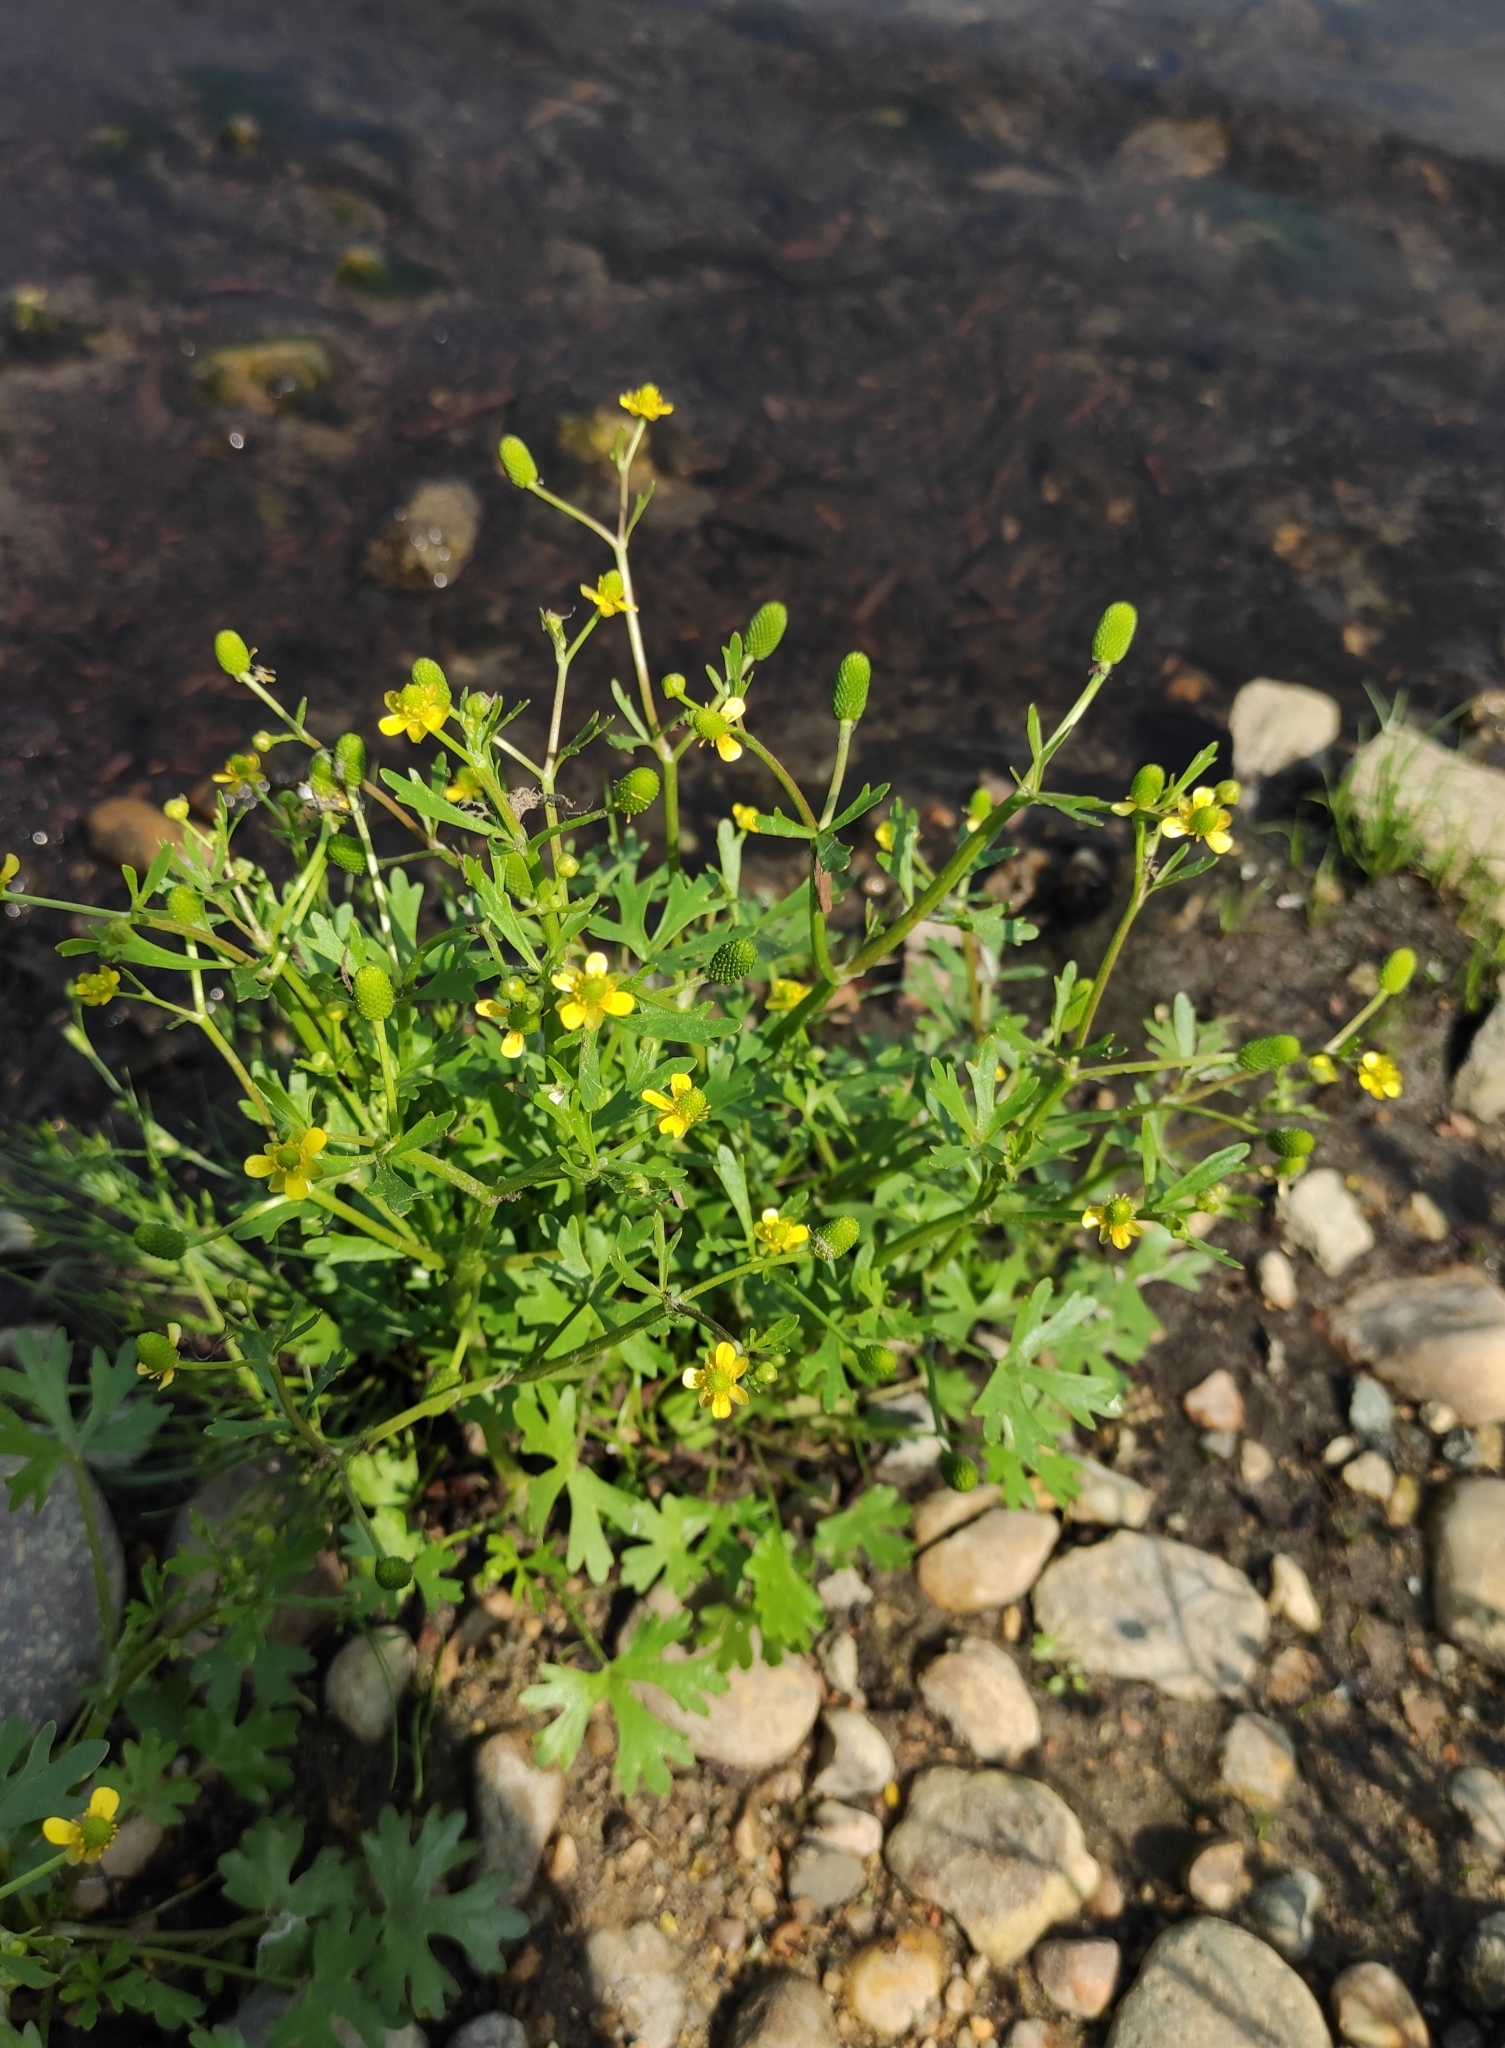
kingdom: Plantae
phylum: Tracheophyta
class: Magnoliopsida
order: Ranunculales
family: Ranunculaceae
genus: Ranunculus
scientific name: Ranunculus sceleratus
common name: Celery-leaved buttercup
